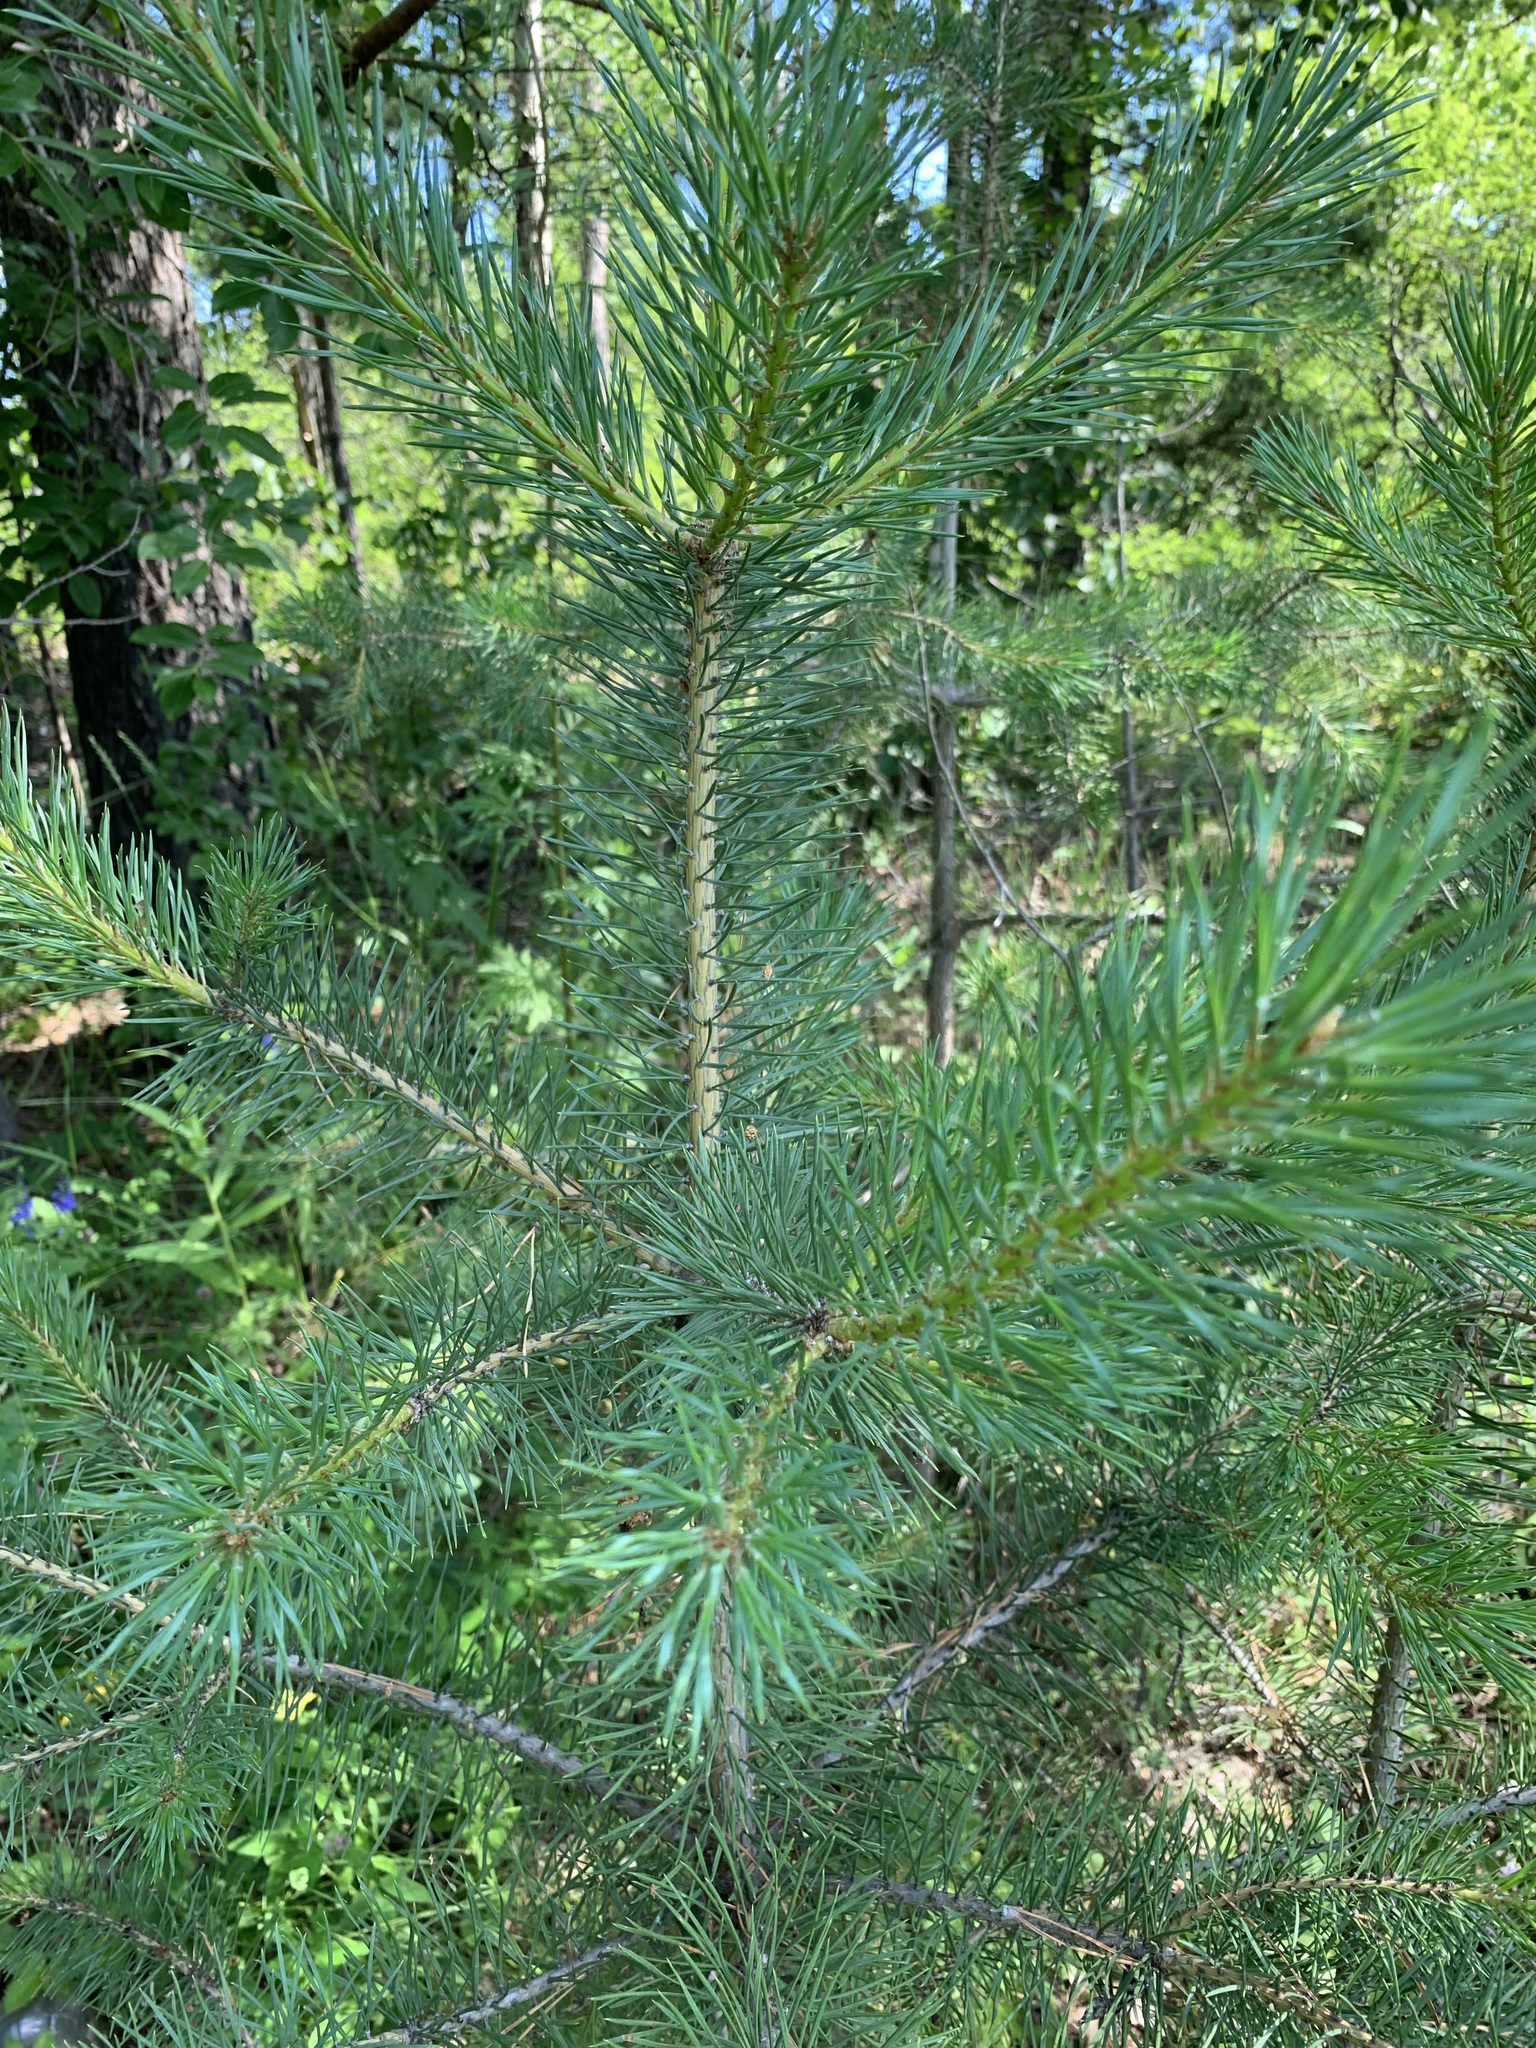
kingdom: Plantae
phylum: Tracheophyta
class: Pinopsida
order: Pinales
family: Pinaceae
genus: Pinus
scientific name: Pinus sylvestris
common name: Scots pine
